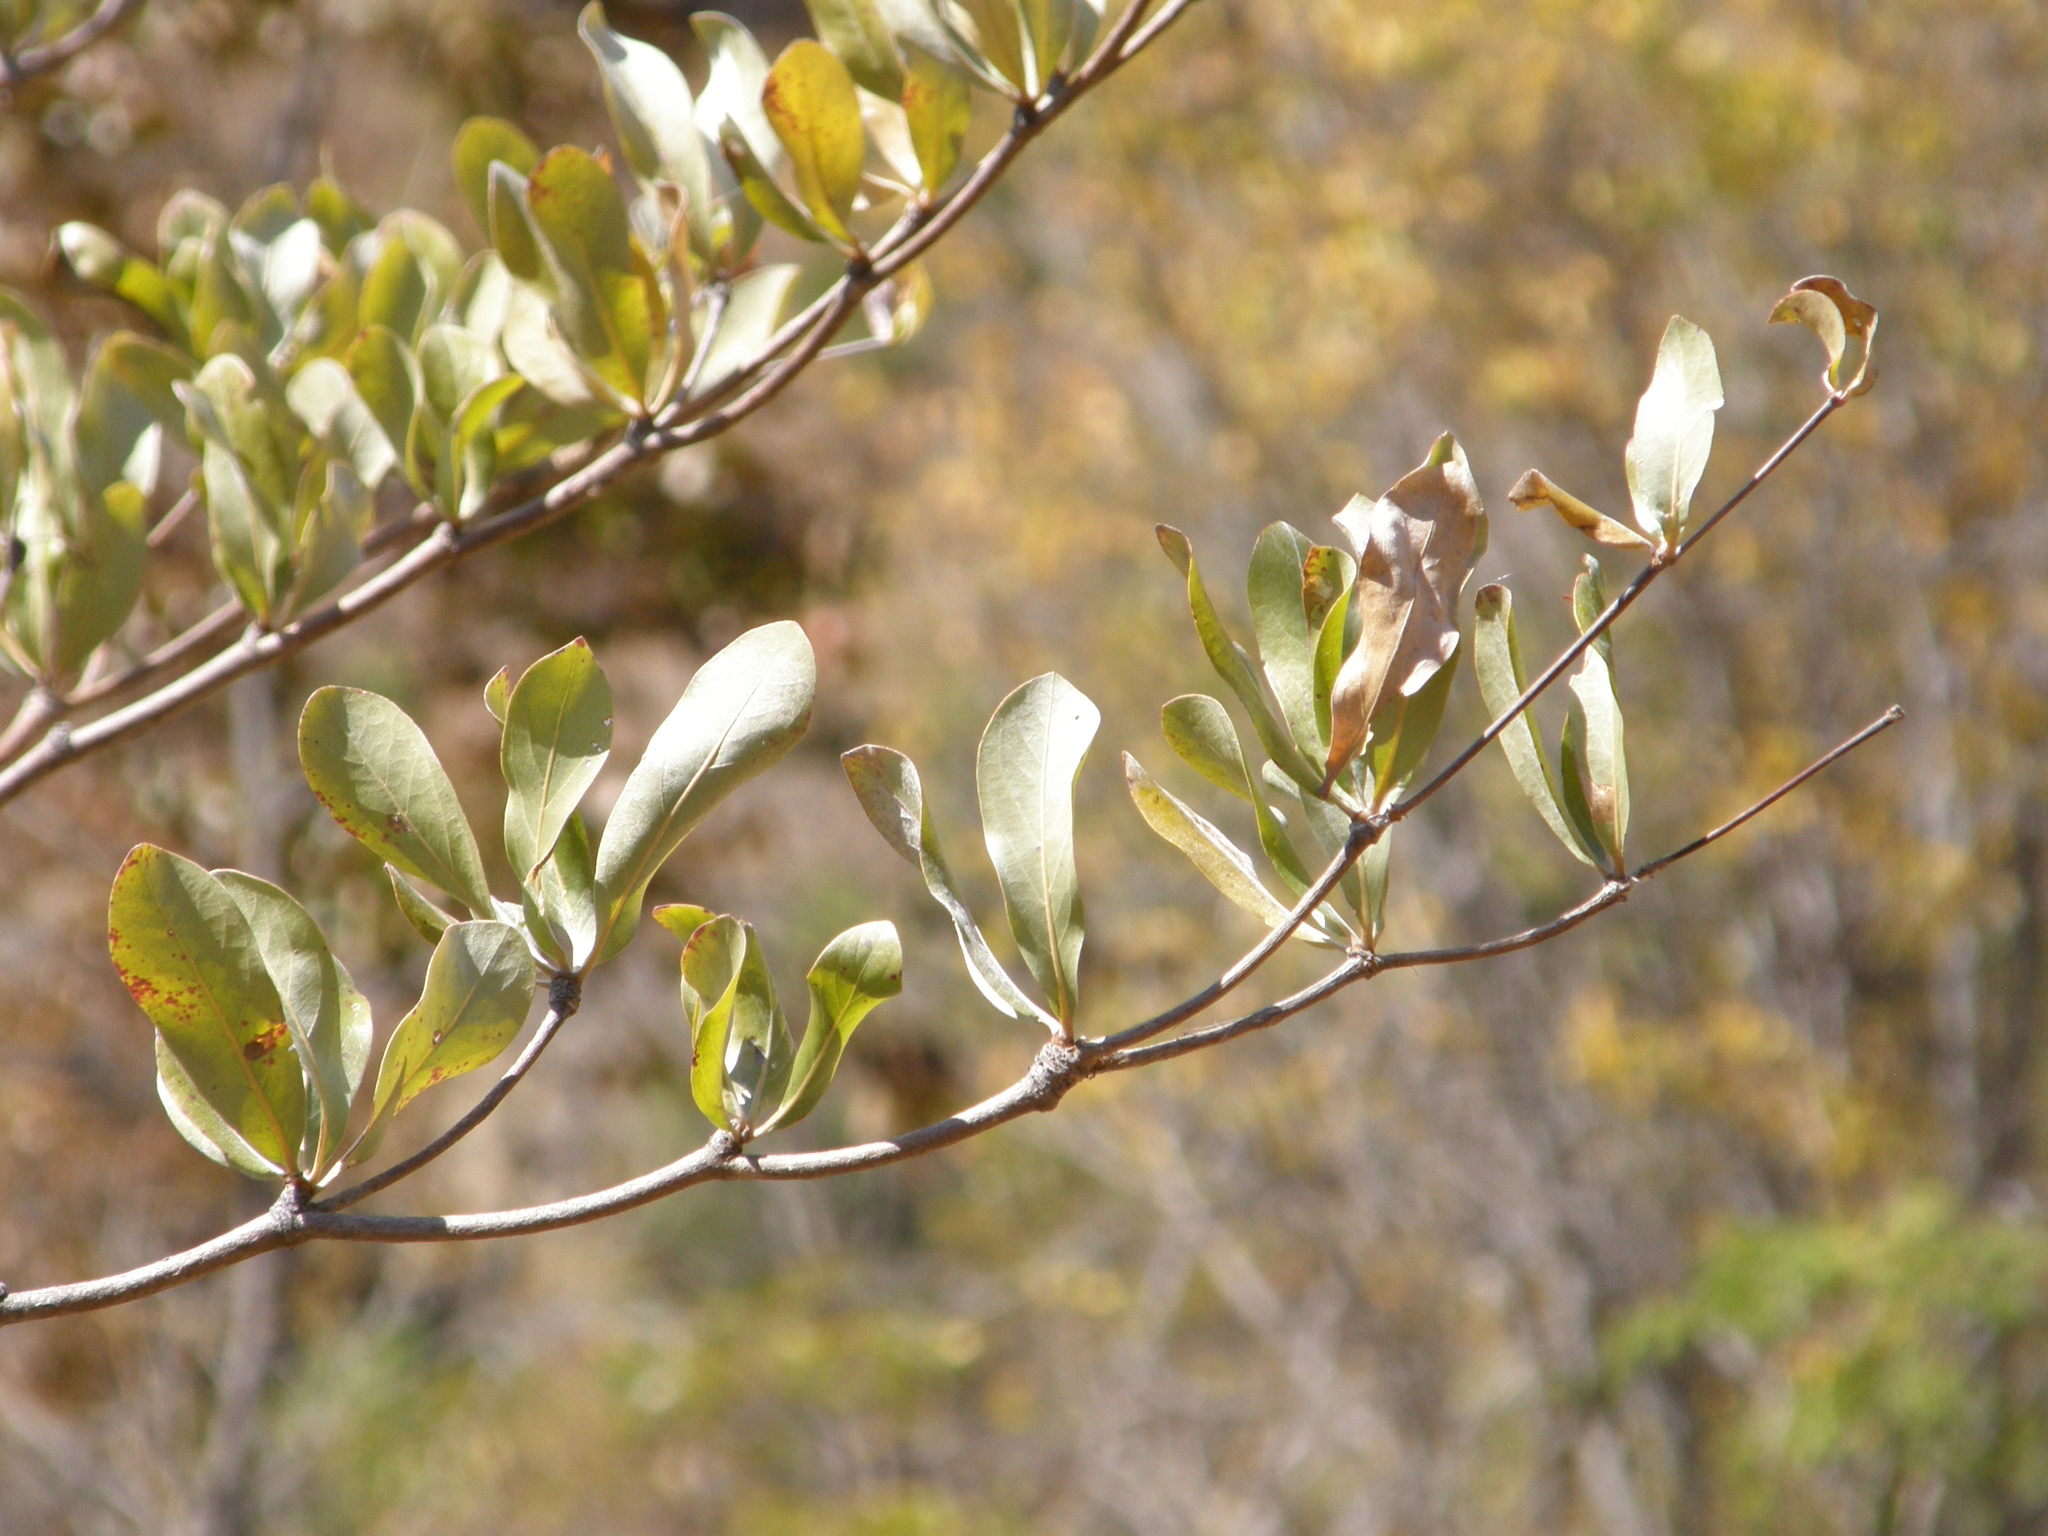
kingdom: Plantae
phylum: Tracheophyta
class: Magnoliopsida
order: Myrtales
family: Combretaceae
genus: Terminalia
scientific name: Terminalia neotaliala
